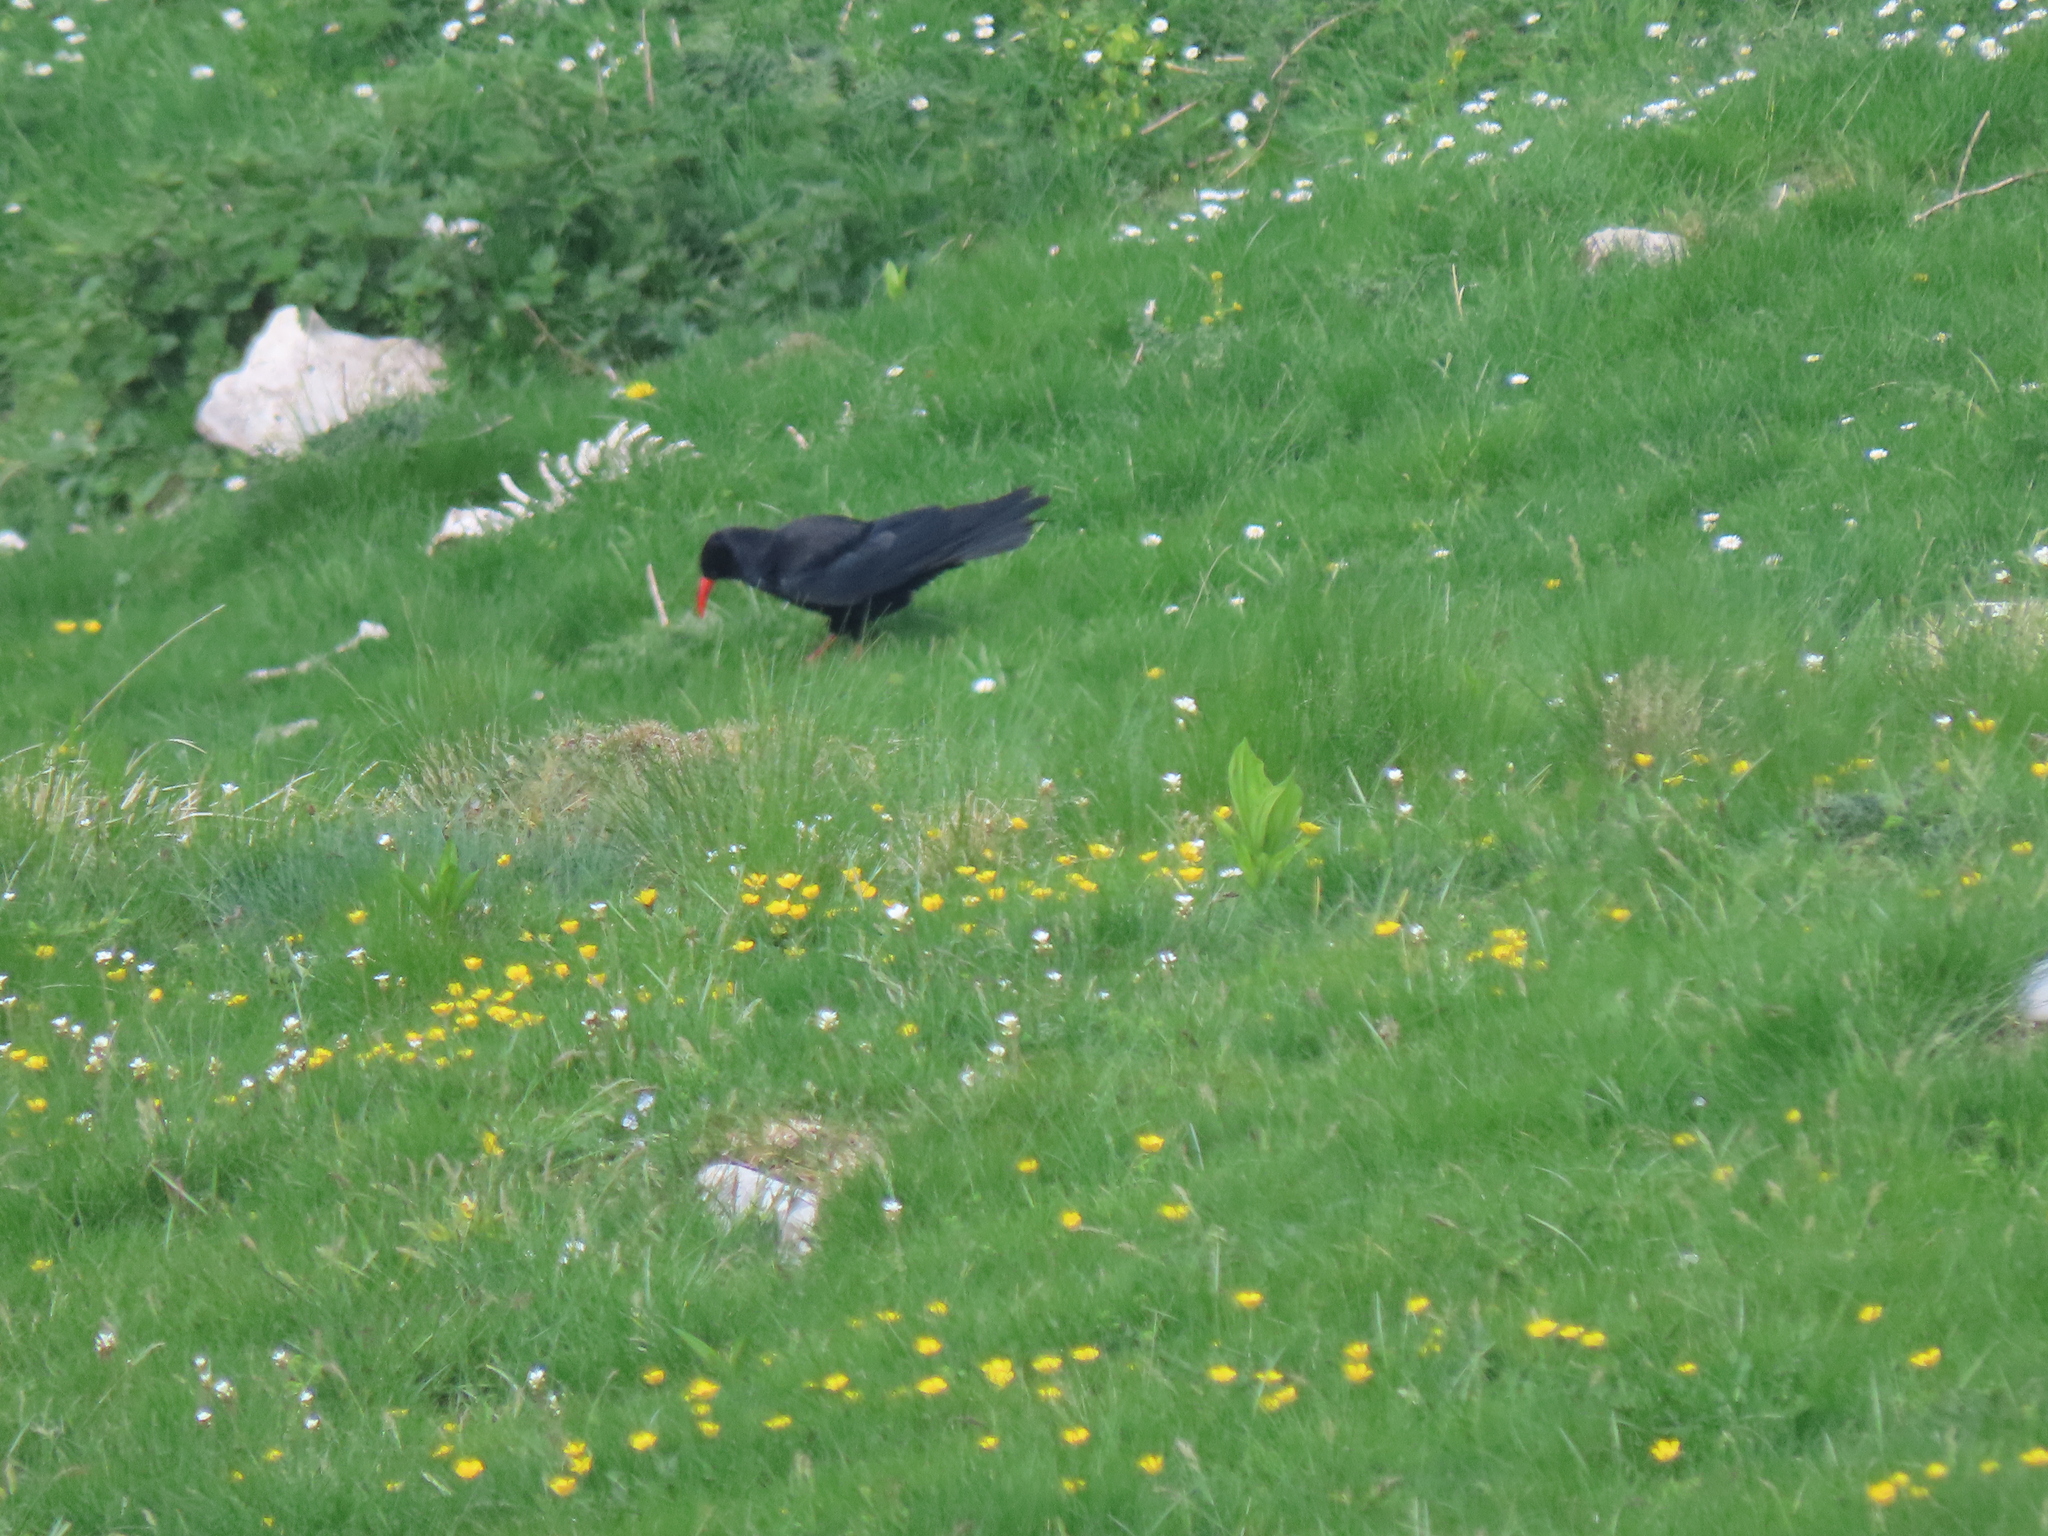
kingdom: Animalia
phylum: Chordata
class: Aves
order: Passeriformes
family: Corvidae
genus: Pyrrhocorax
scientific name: Pyrrhocorax pyrrhocorax
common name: Red-billed chough
